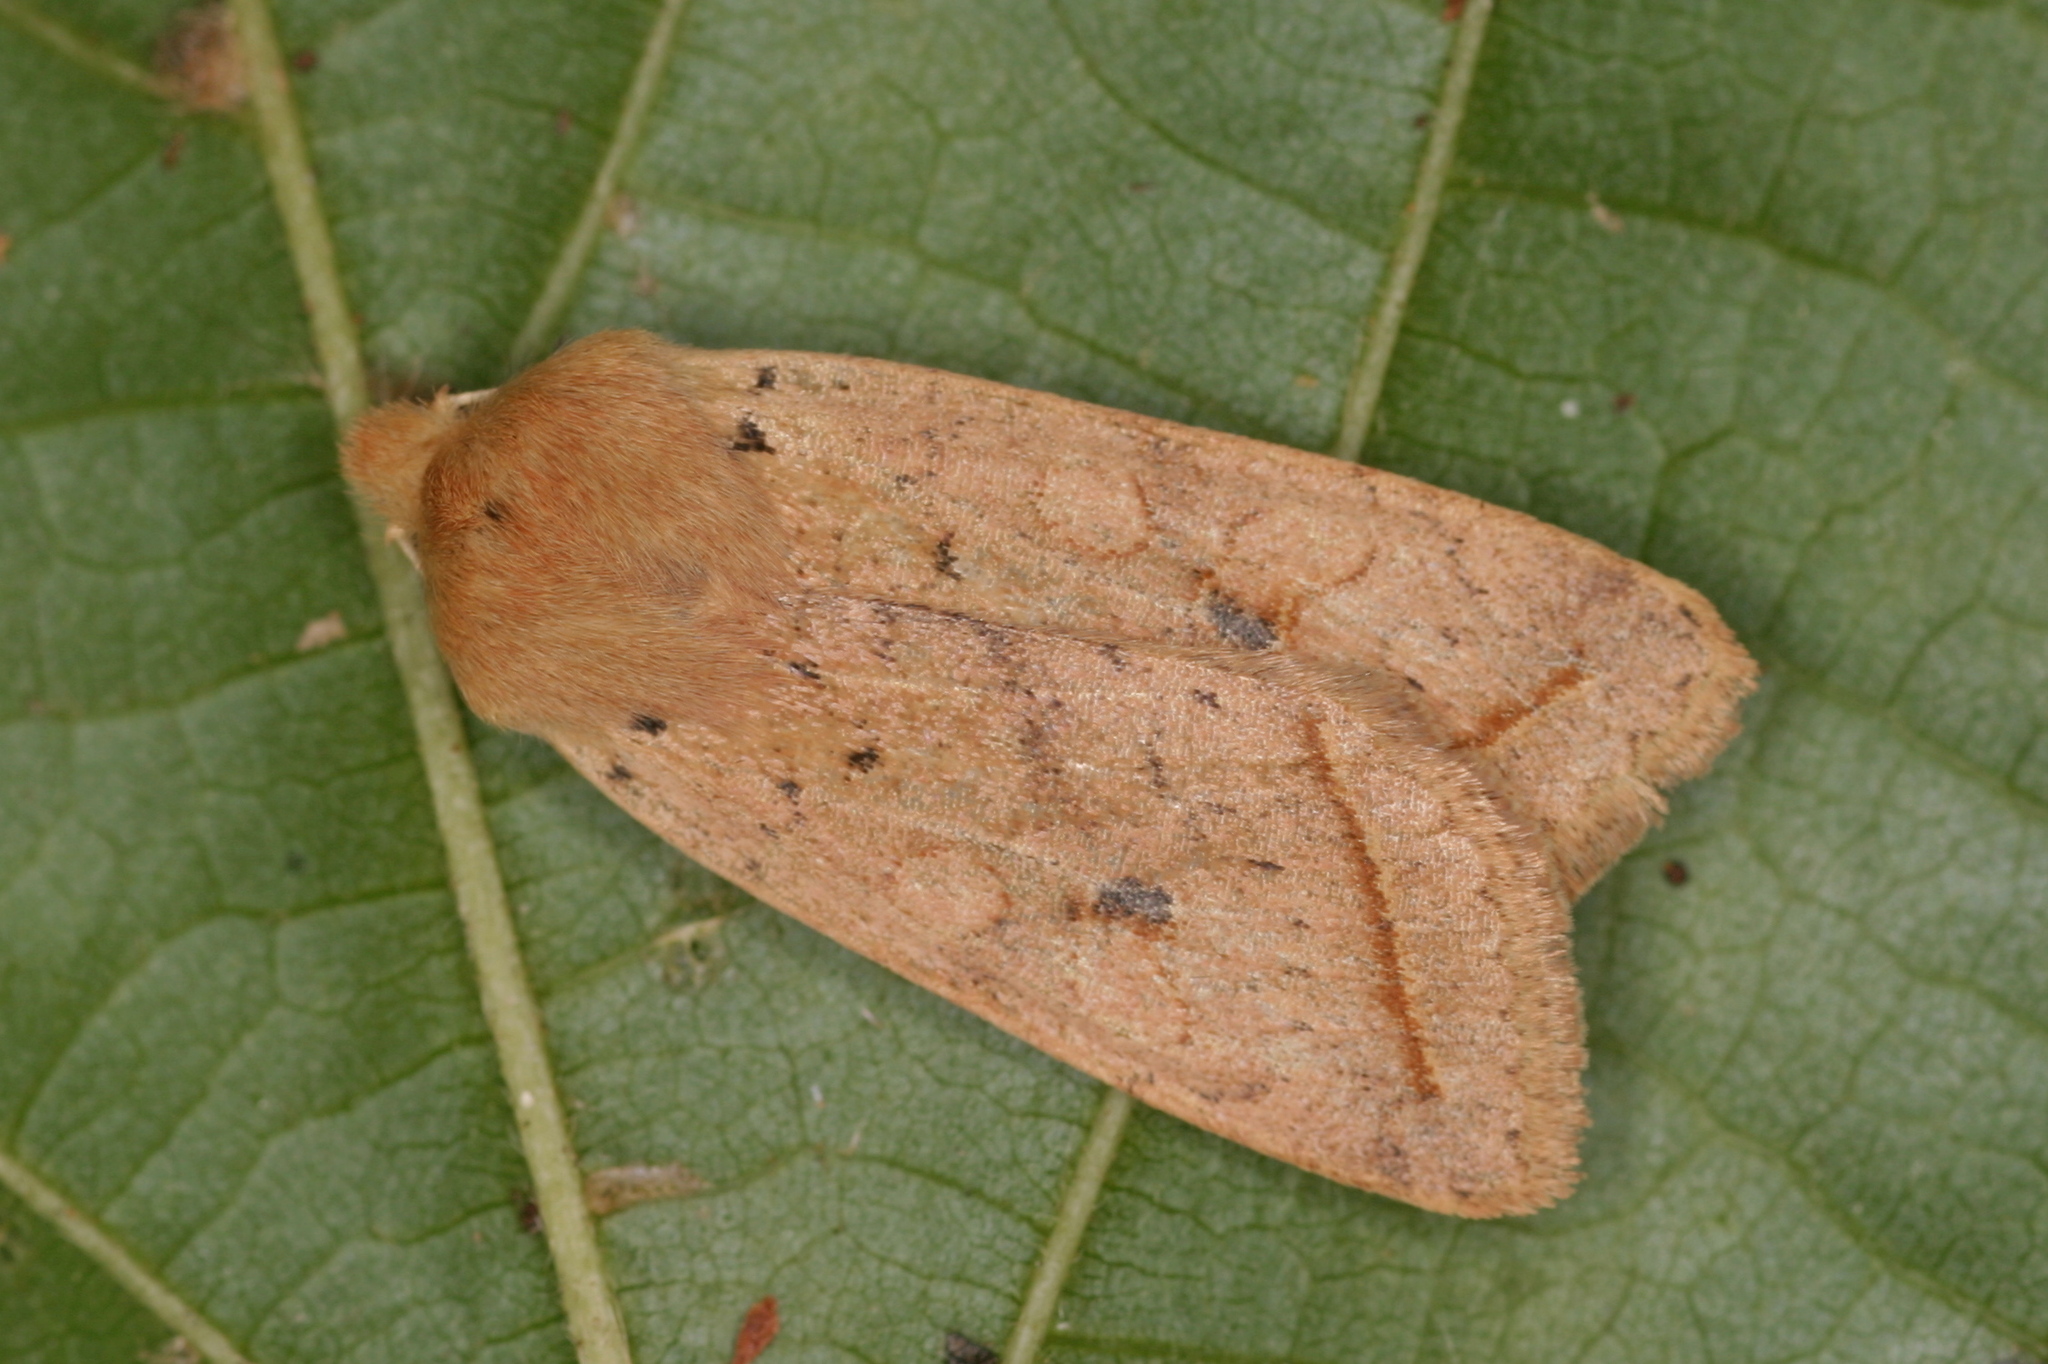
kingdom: Animalia
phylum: Arthropoda
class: Insecta
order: Lepidoptera
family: Noctuidae
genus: Agrochola
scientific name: Agrochola macilenta
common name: Yellow-line quaker
